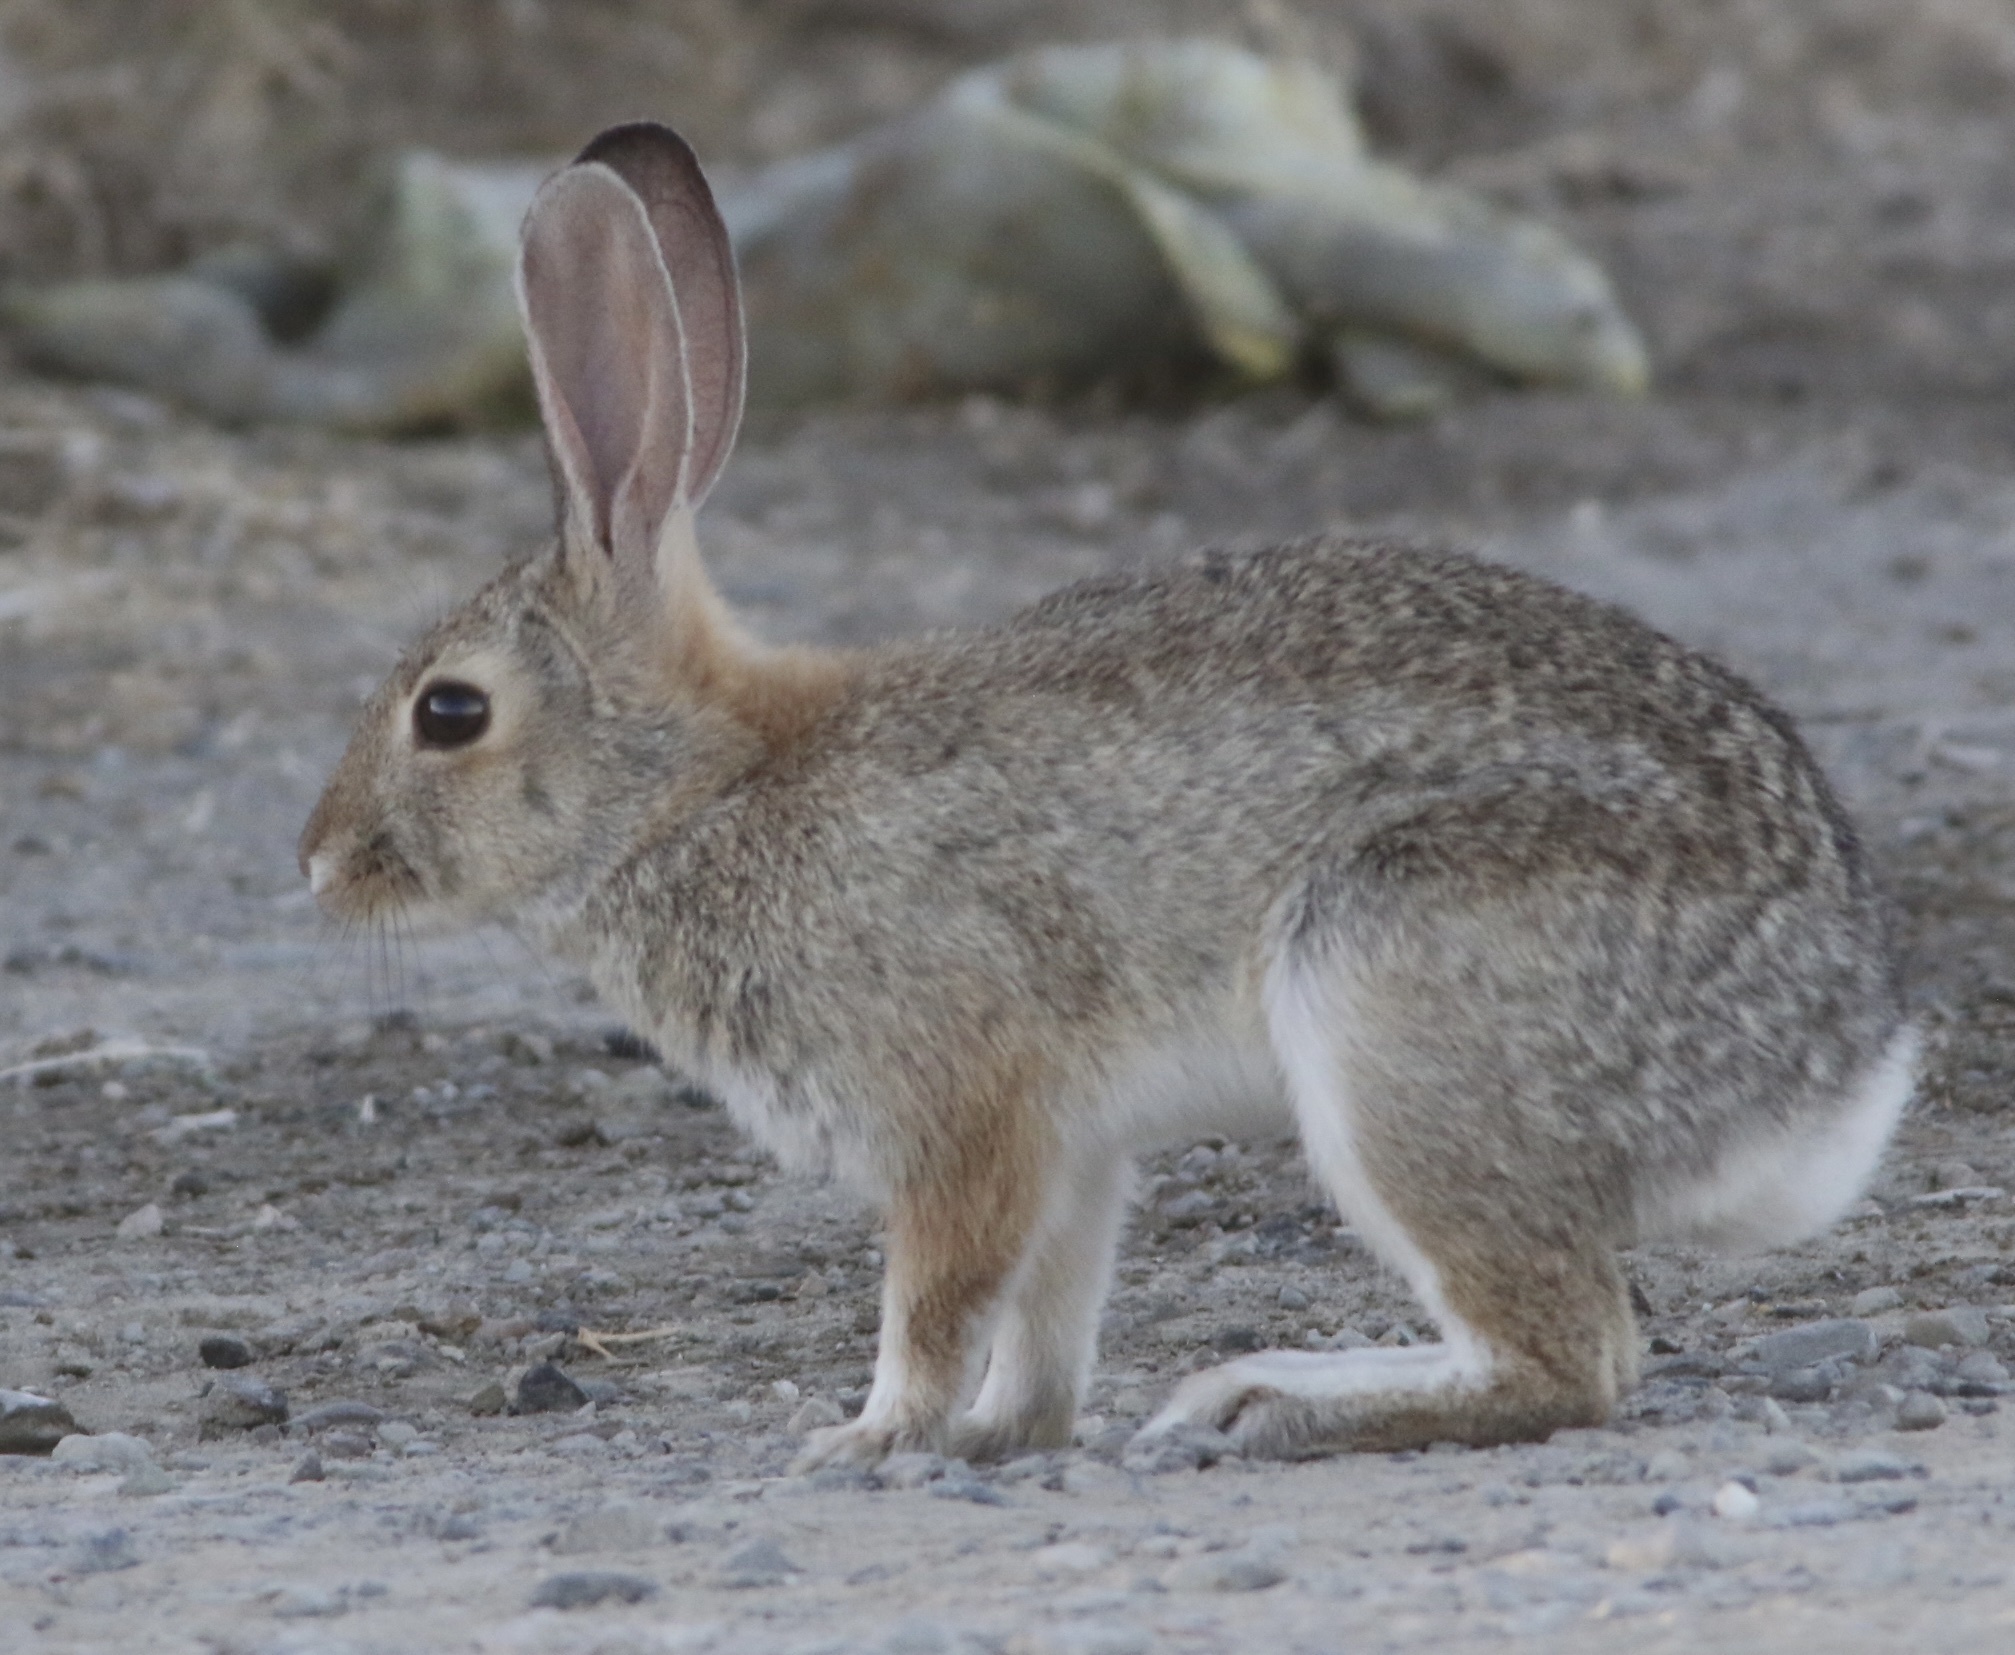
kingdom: Animalia
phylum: Chordata
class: Mammalia
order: Lagomorpha
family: Leporidae
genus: Sylvilagus
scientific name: Sylvilagus audubonii
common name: Desert cottontail
